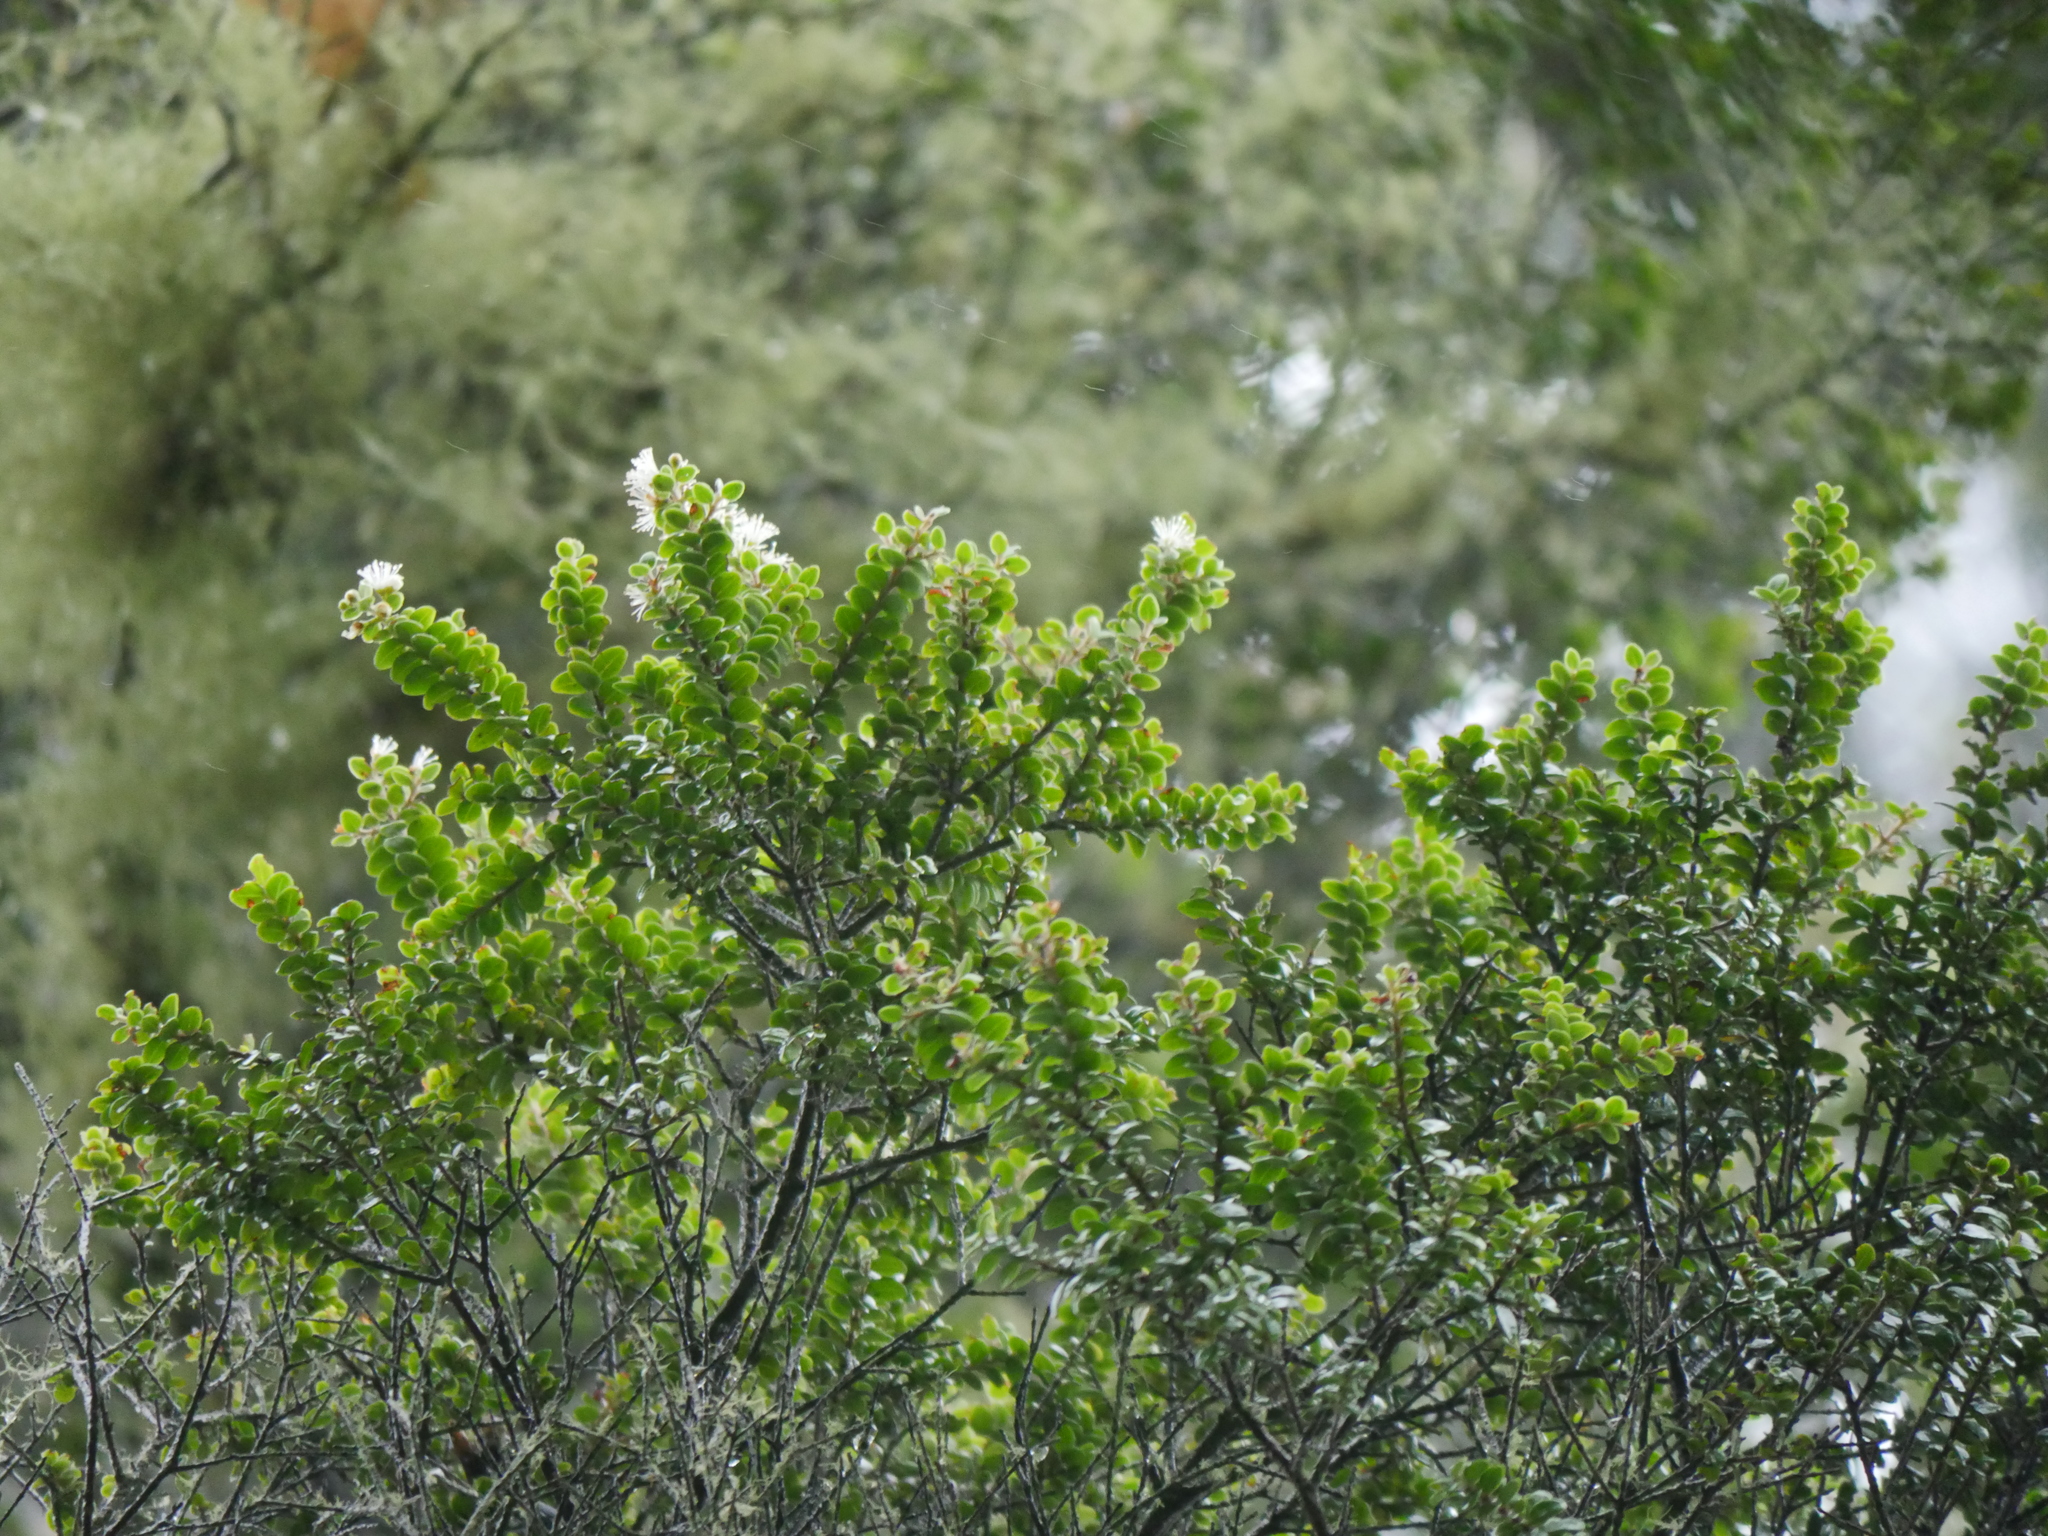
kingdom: Plantae
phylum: Tracheophyta
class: Magnoliopsida
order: Myrtales
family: Myrtaceae
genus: Metrosideros
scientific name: Metrosideros perforata
